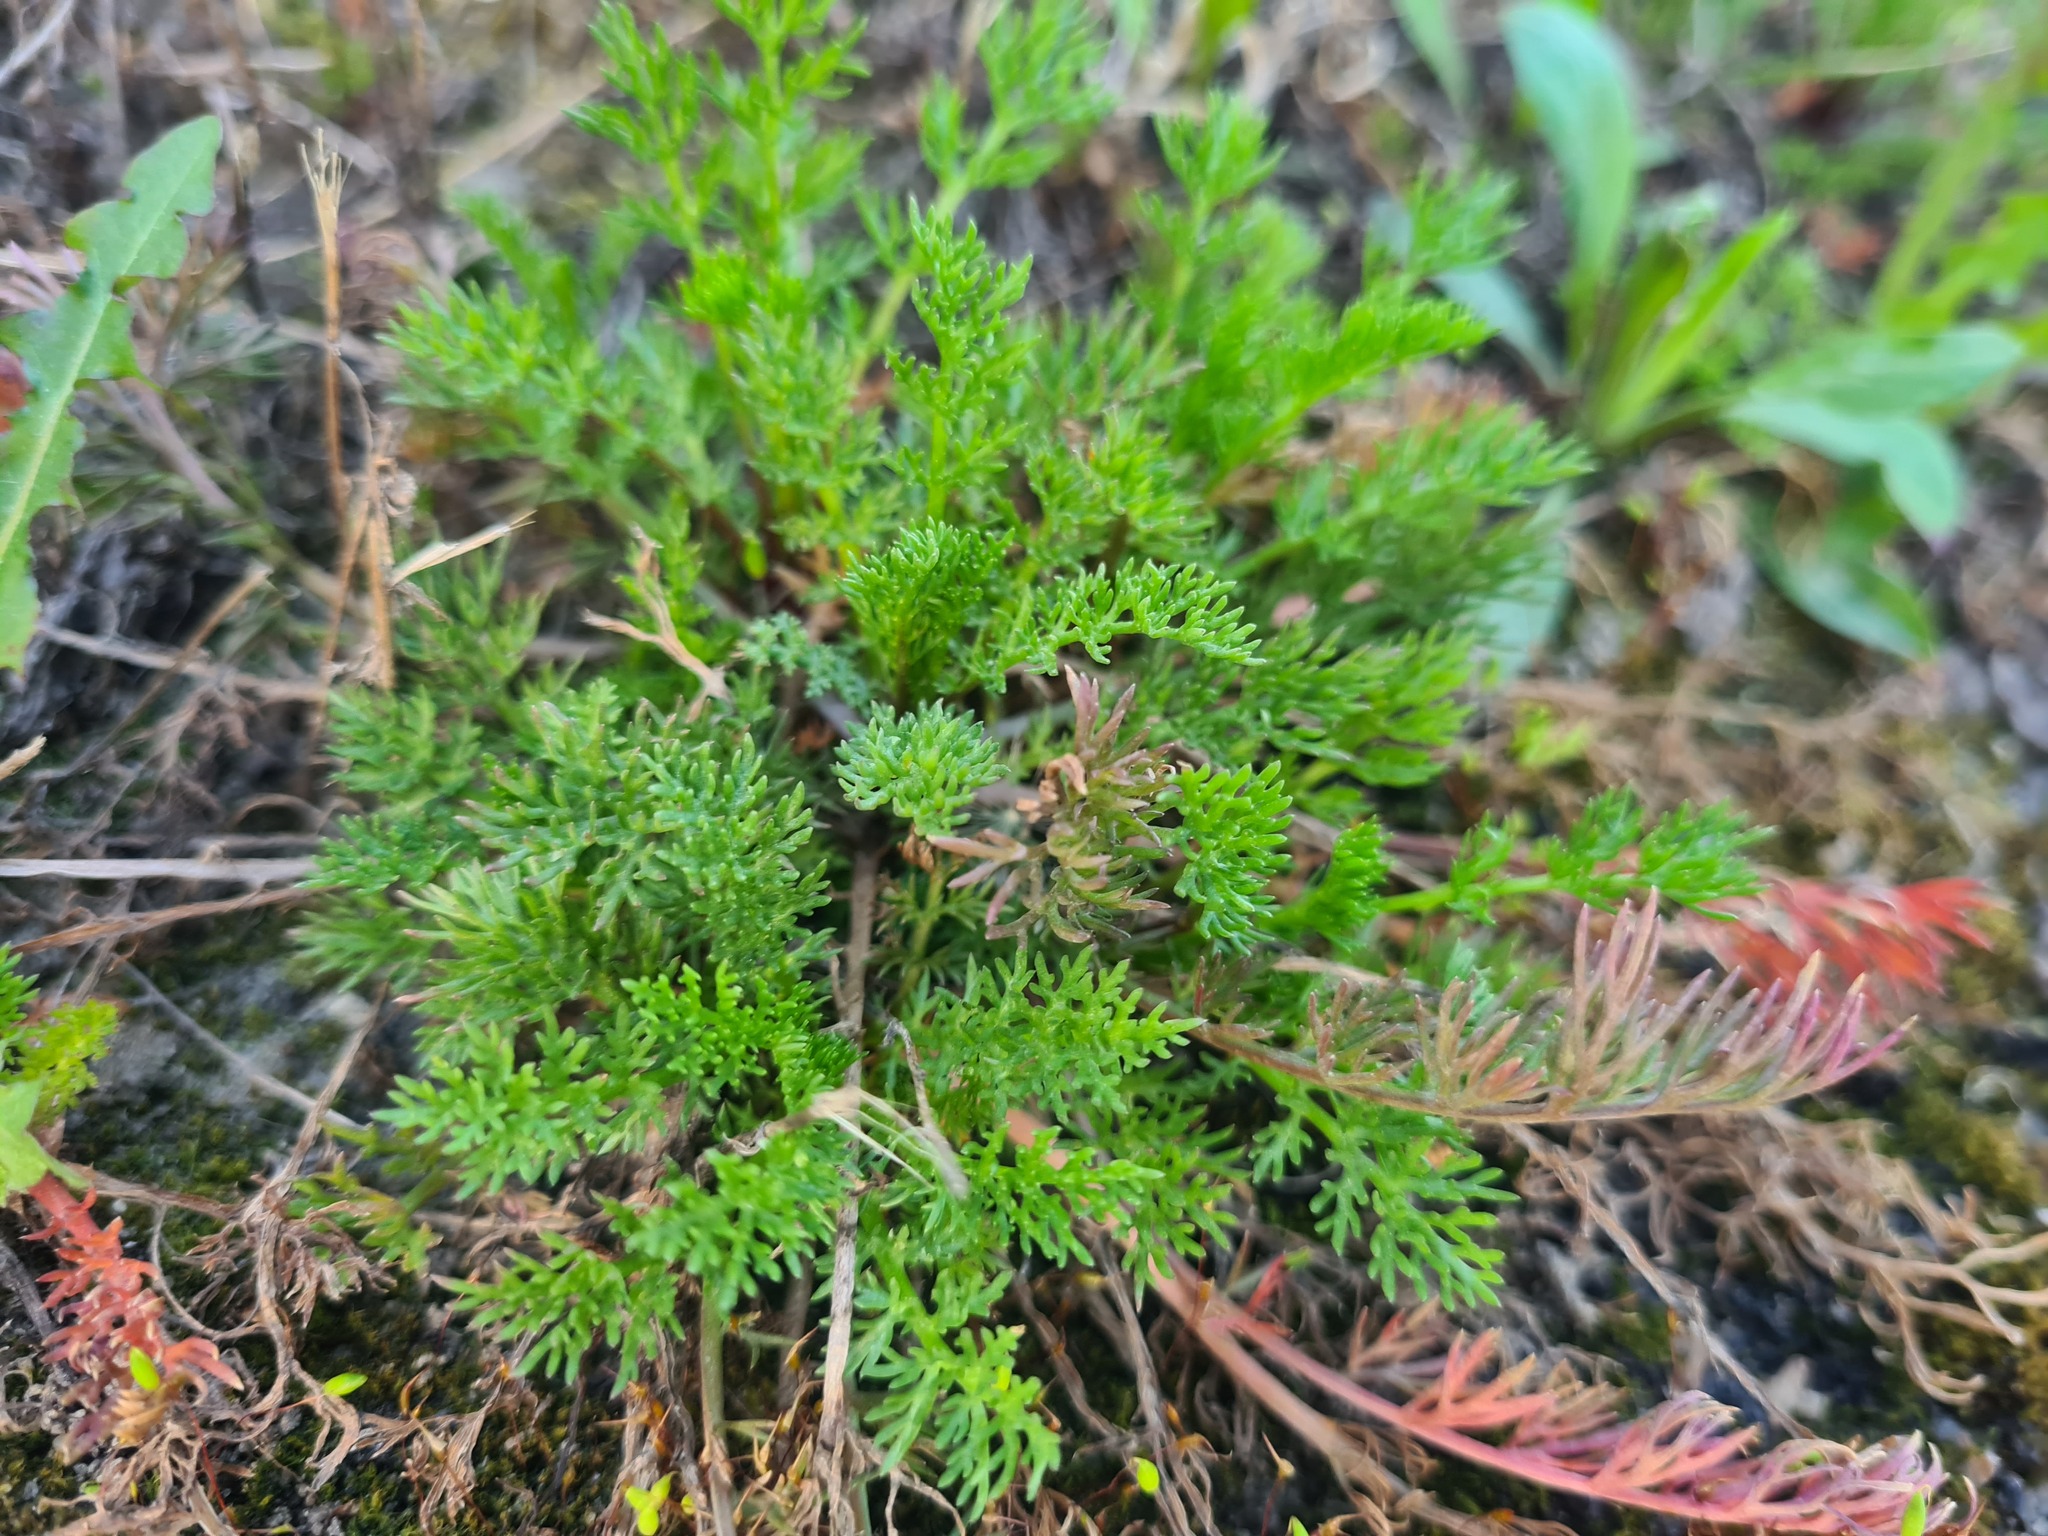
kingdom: Plantae
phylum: Tracheophyta
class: Magnoliopsida
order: Asterales
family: Asteraceae
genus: Tripleurospermum
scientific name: Tripleurospermum inodorum
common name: Scentless mayweed
